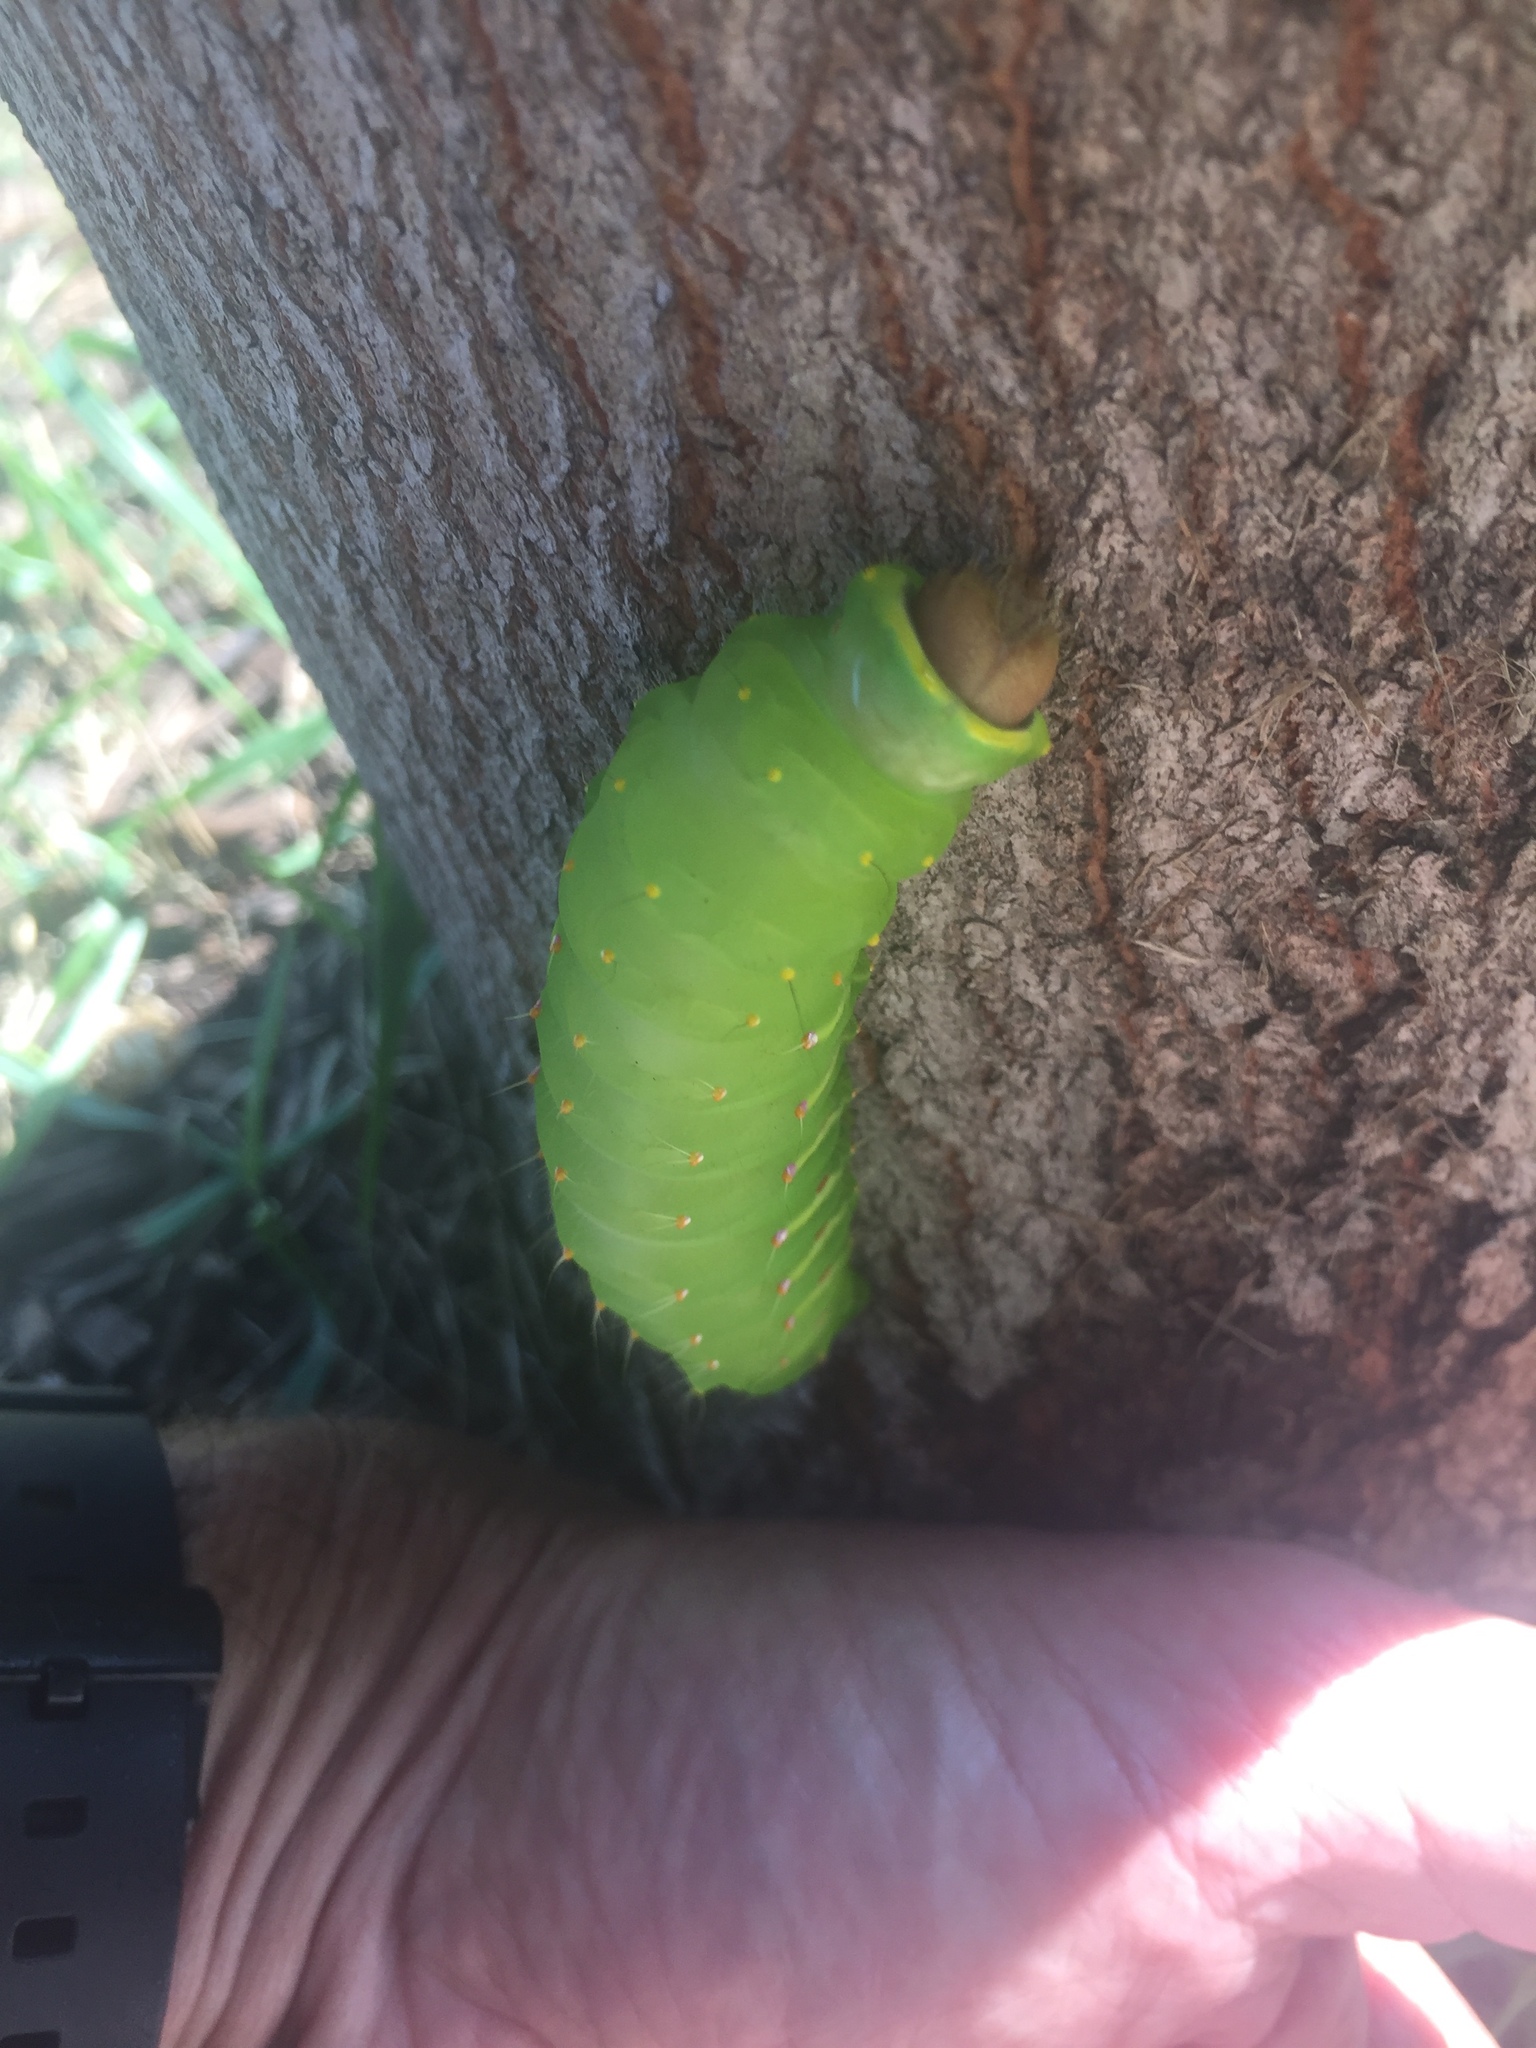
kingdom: Animalia
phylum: Arthropoda
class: Insecta
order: Lepidoptera
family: Saturniidae
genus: Antheraea
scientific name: Antheraea polyphemus
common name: Polyphemus moth
